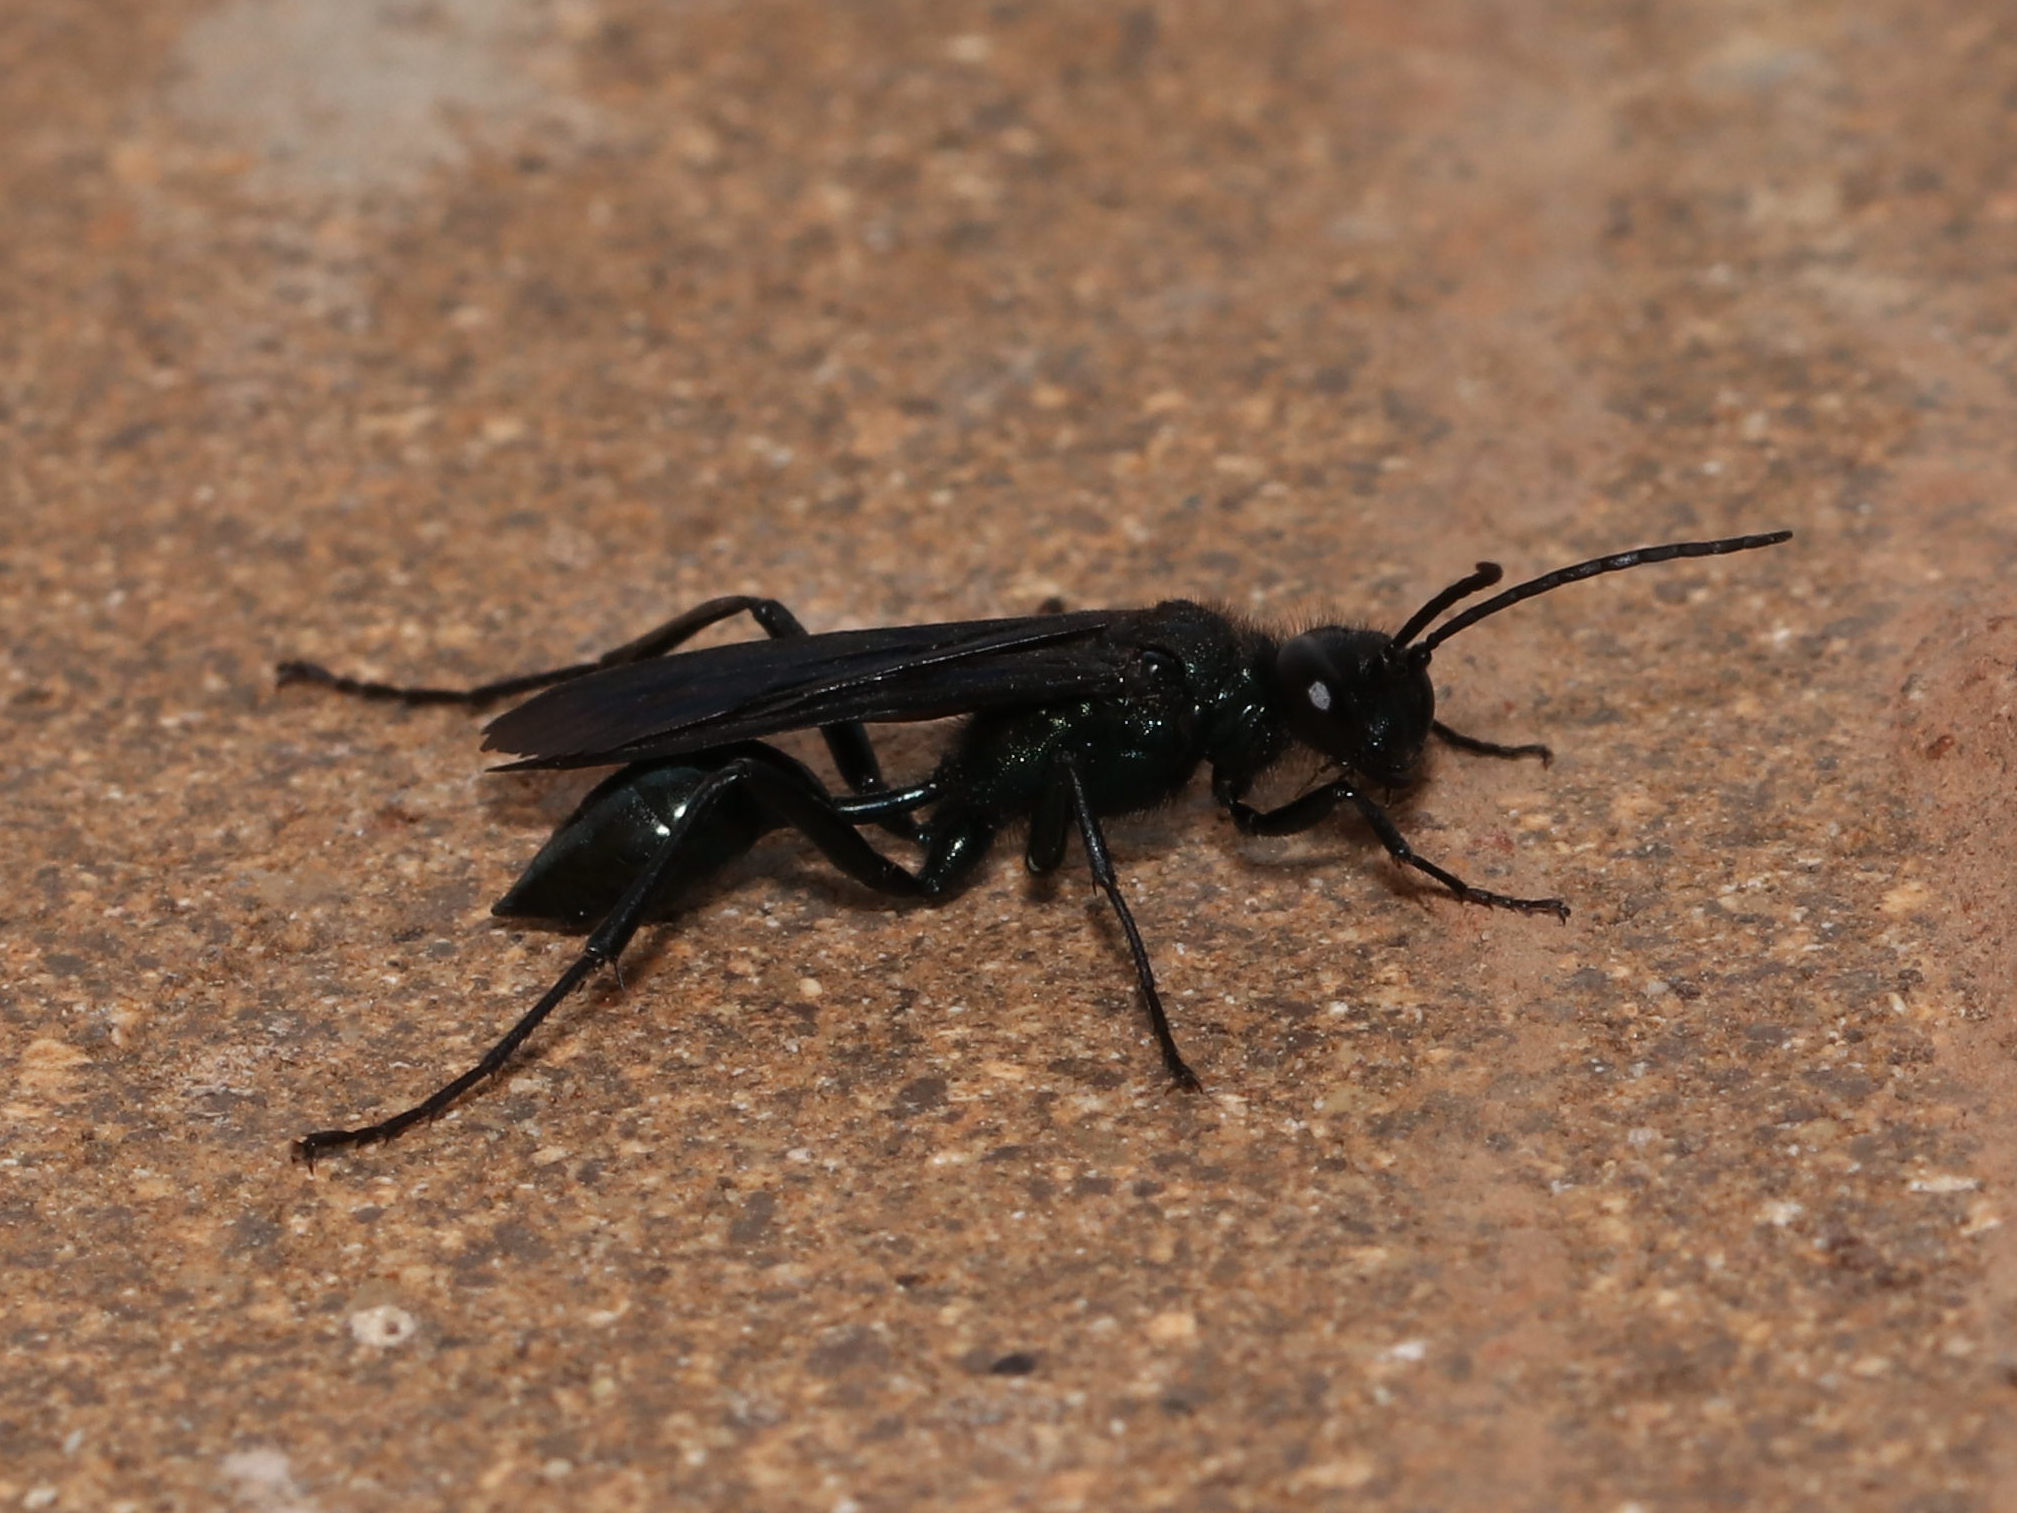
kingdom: Animalia
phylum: Arthropoda
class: Insecta
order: Hymenoptera
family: Sphecidae
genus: Chalybion
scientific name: Chalybion californicum
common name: Mud dauber
